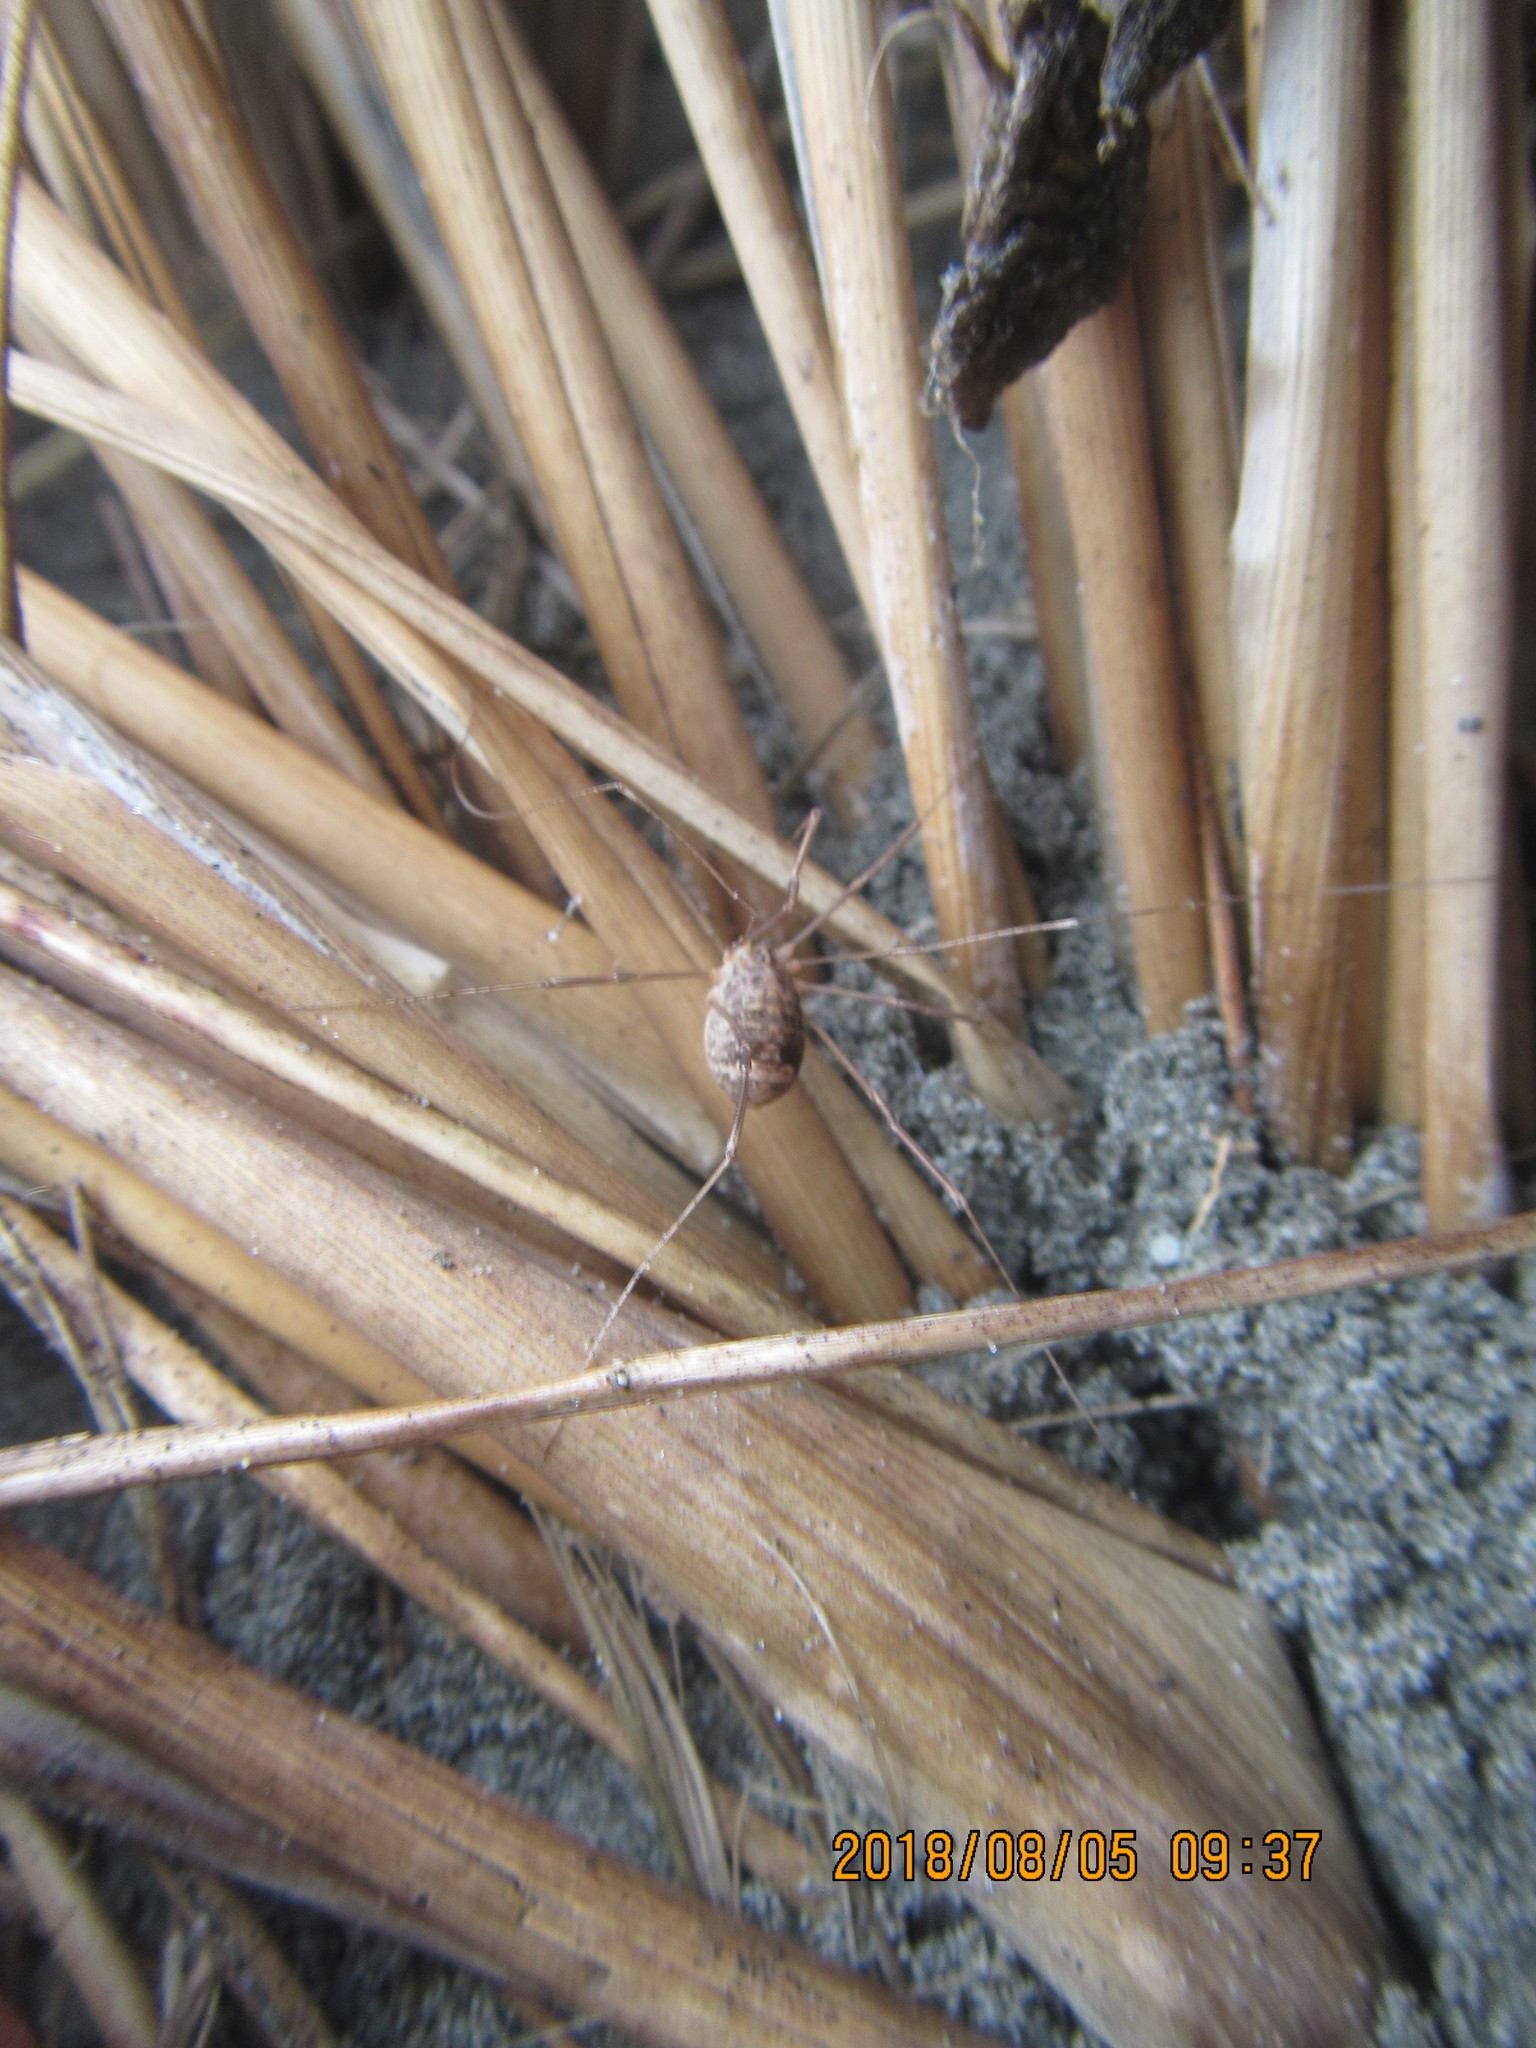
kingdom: Animalia
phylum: Arthropoda
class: Arachnida
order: Opiliones
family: Phalangiidae
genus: Phalangium
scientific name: Phalangium opilio
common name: Daddy longleg
